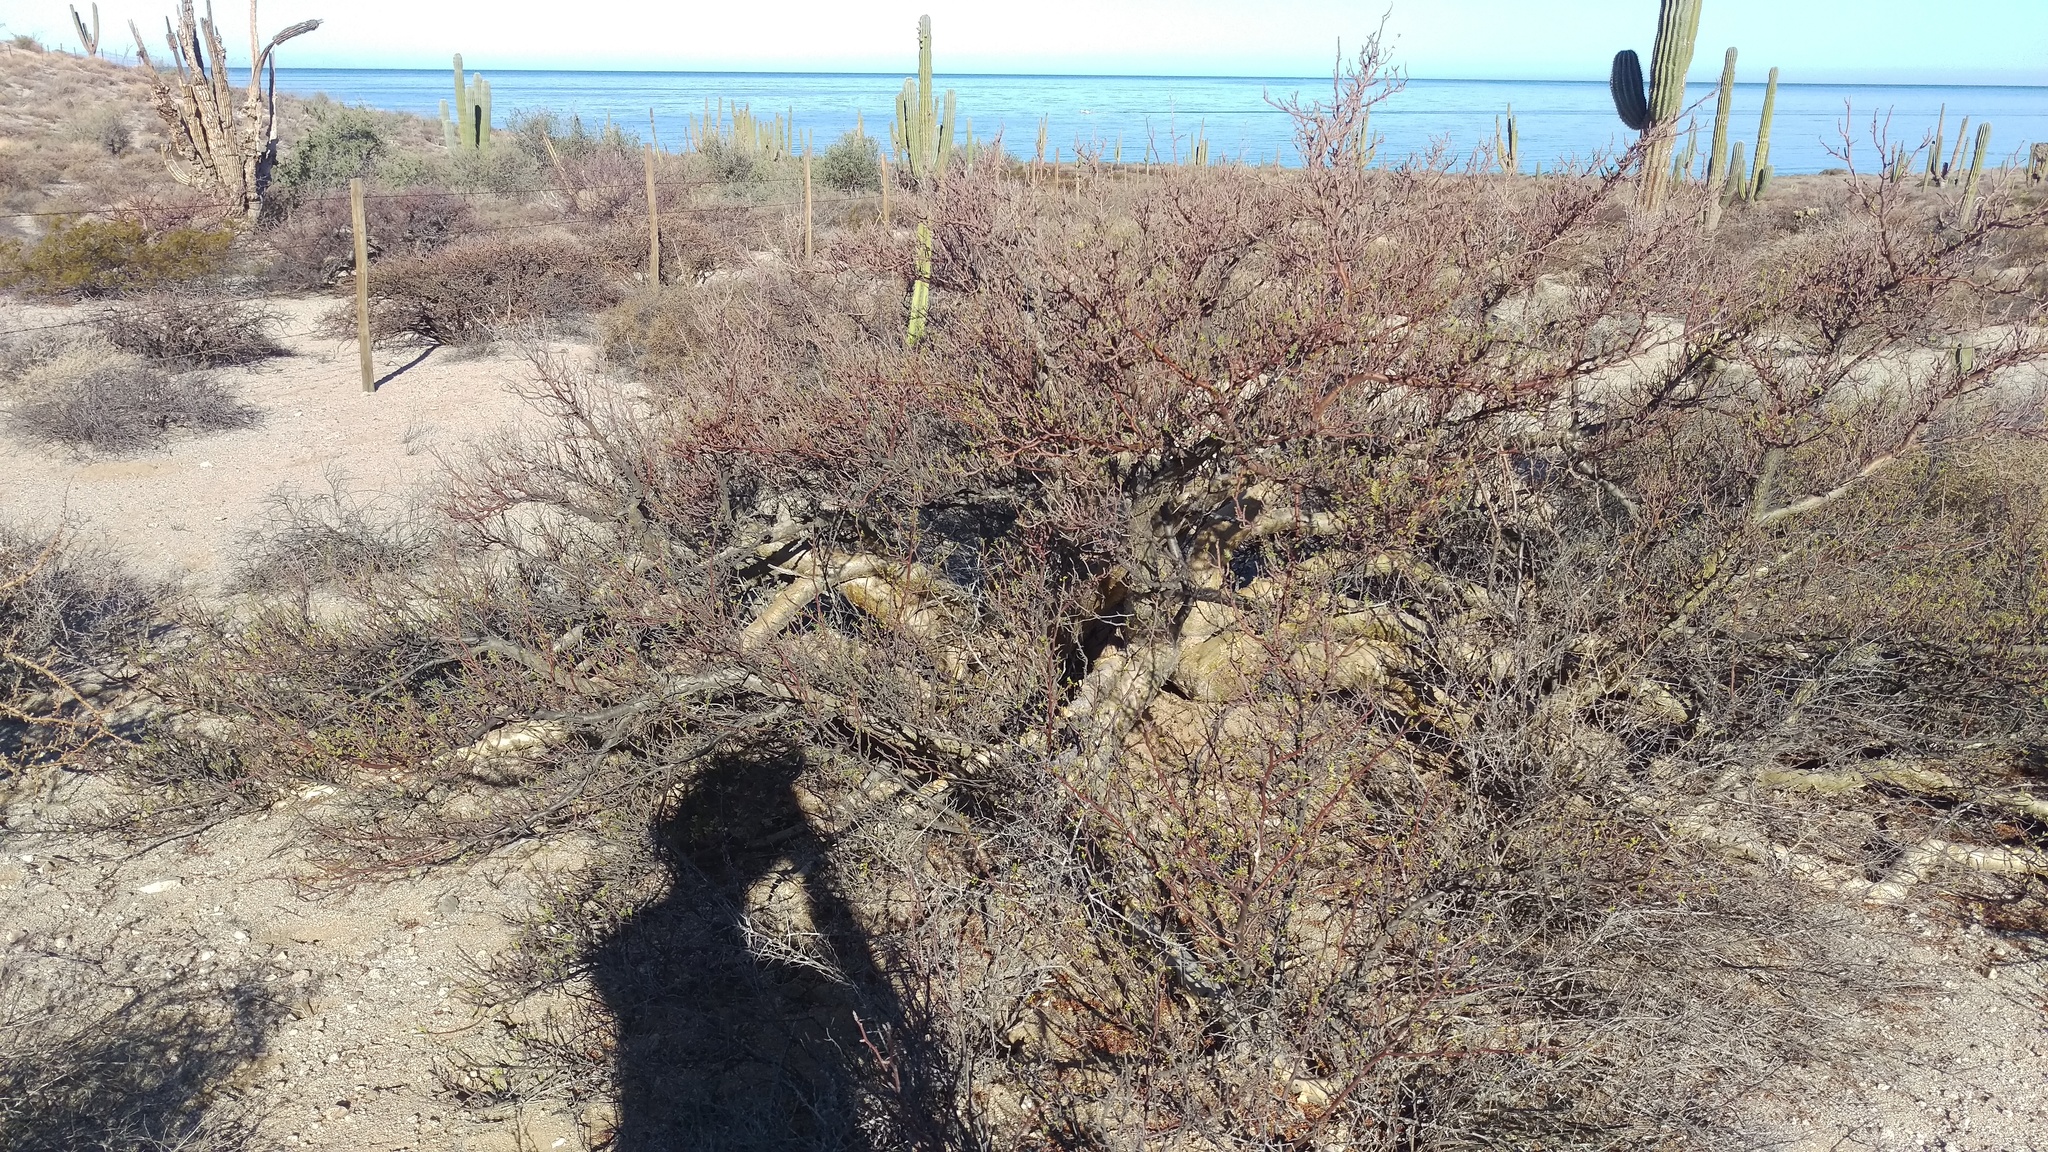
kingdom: Plantae
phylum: Tracheophyta
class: Magnoliopsida
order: Sapindales
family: Burseraceae
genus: Bursera
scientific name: Bursera microphylla
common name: Elephant tree
